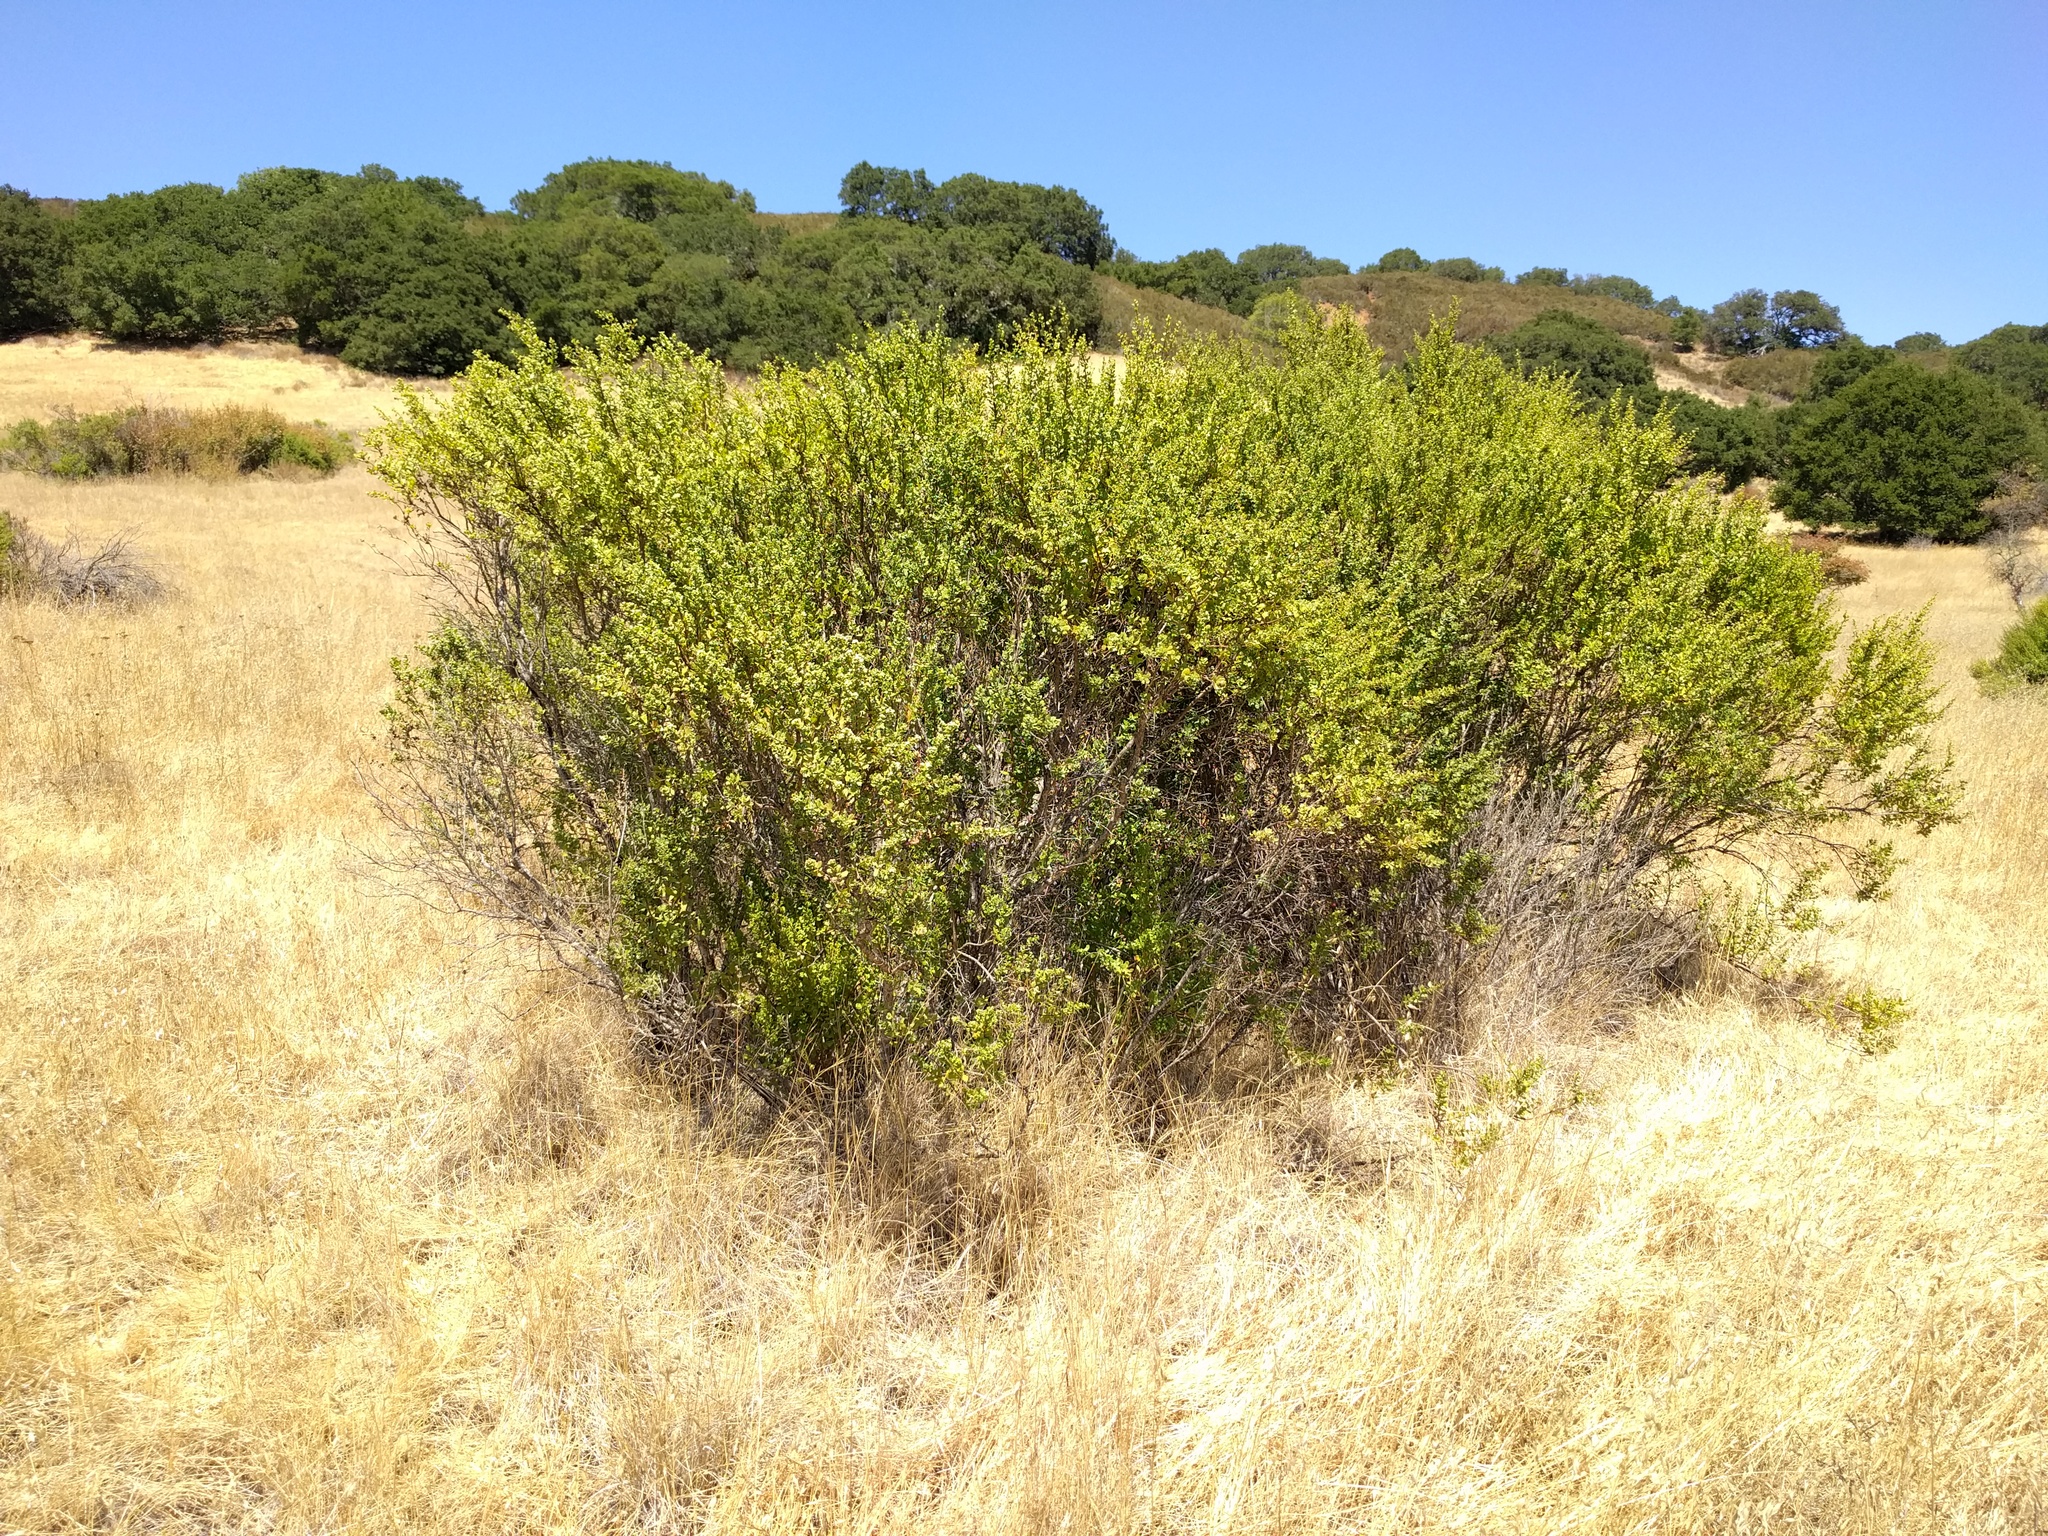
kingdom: Plantae
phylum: Tracheophyta
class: Magnoliopsida
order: Asterales
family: Asteraceae
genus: Baccharis
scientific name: Baccharis pilularis
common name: Coyotebrush
